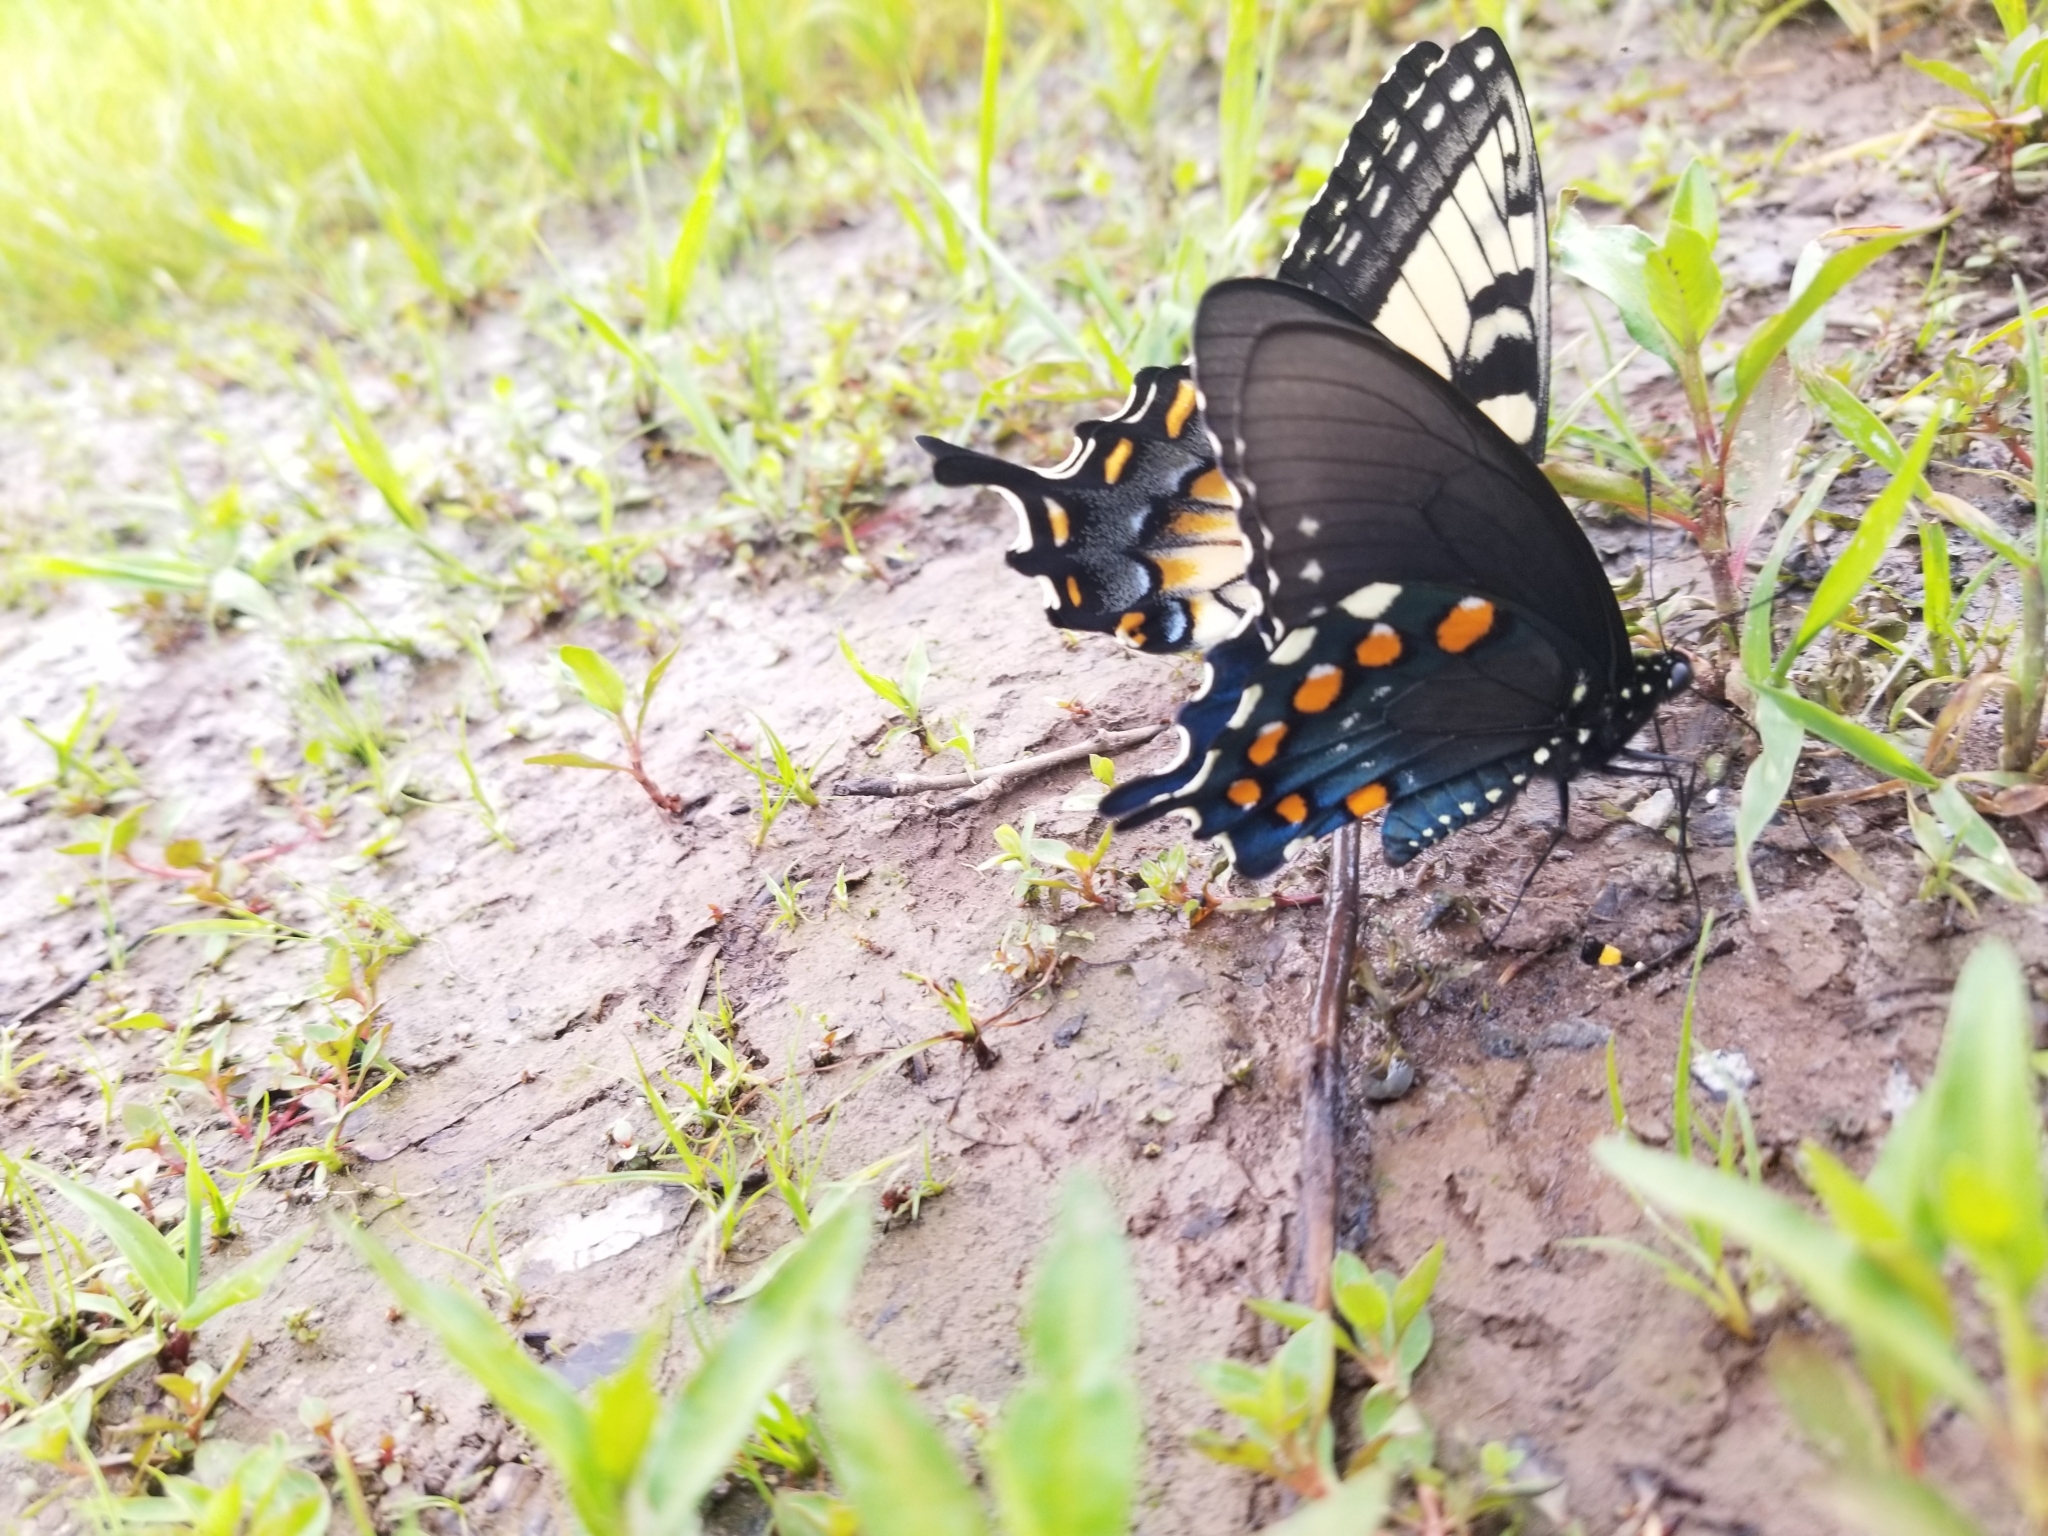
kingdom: Animalia
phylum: Arthropoda
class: Insecta
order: Lepidoptera
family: Papilionidae
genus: Battus
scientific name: Battus philenor
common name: Pipevine swallowtail
